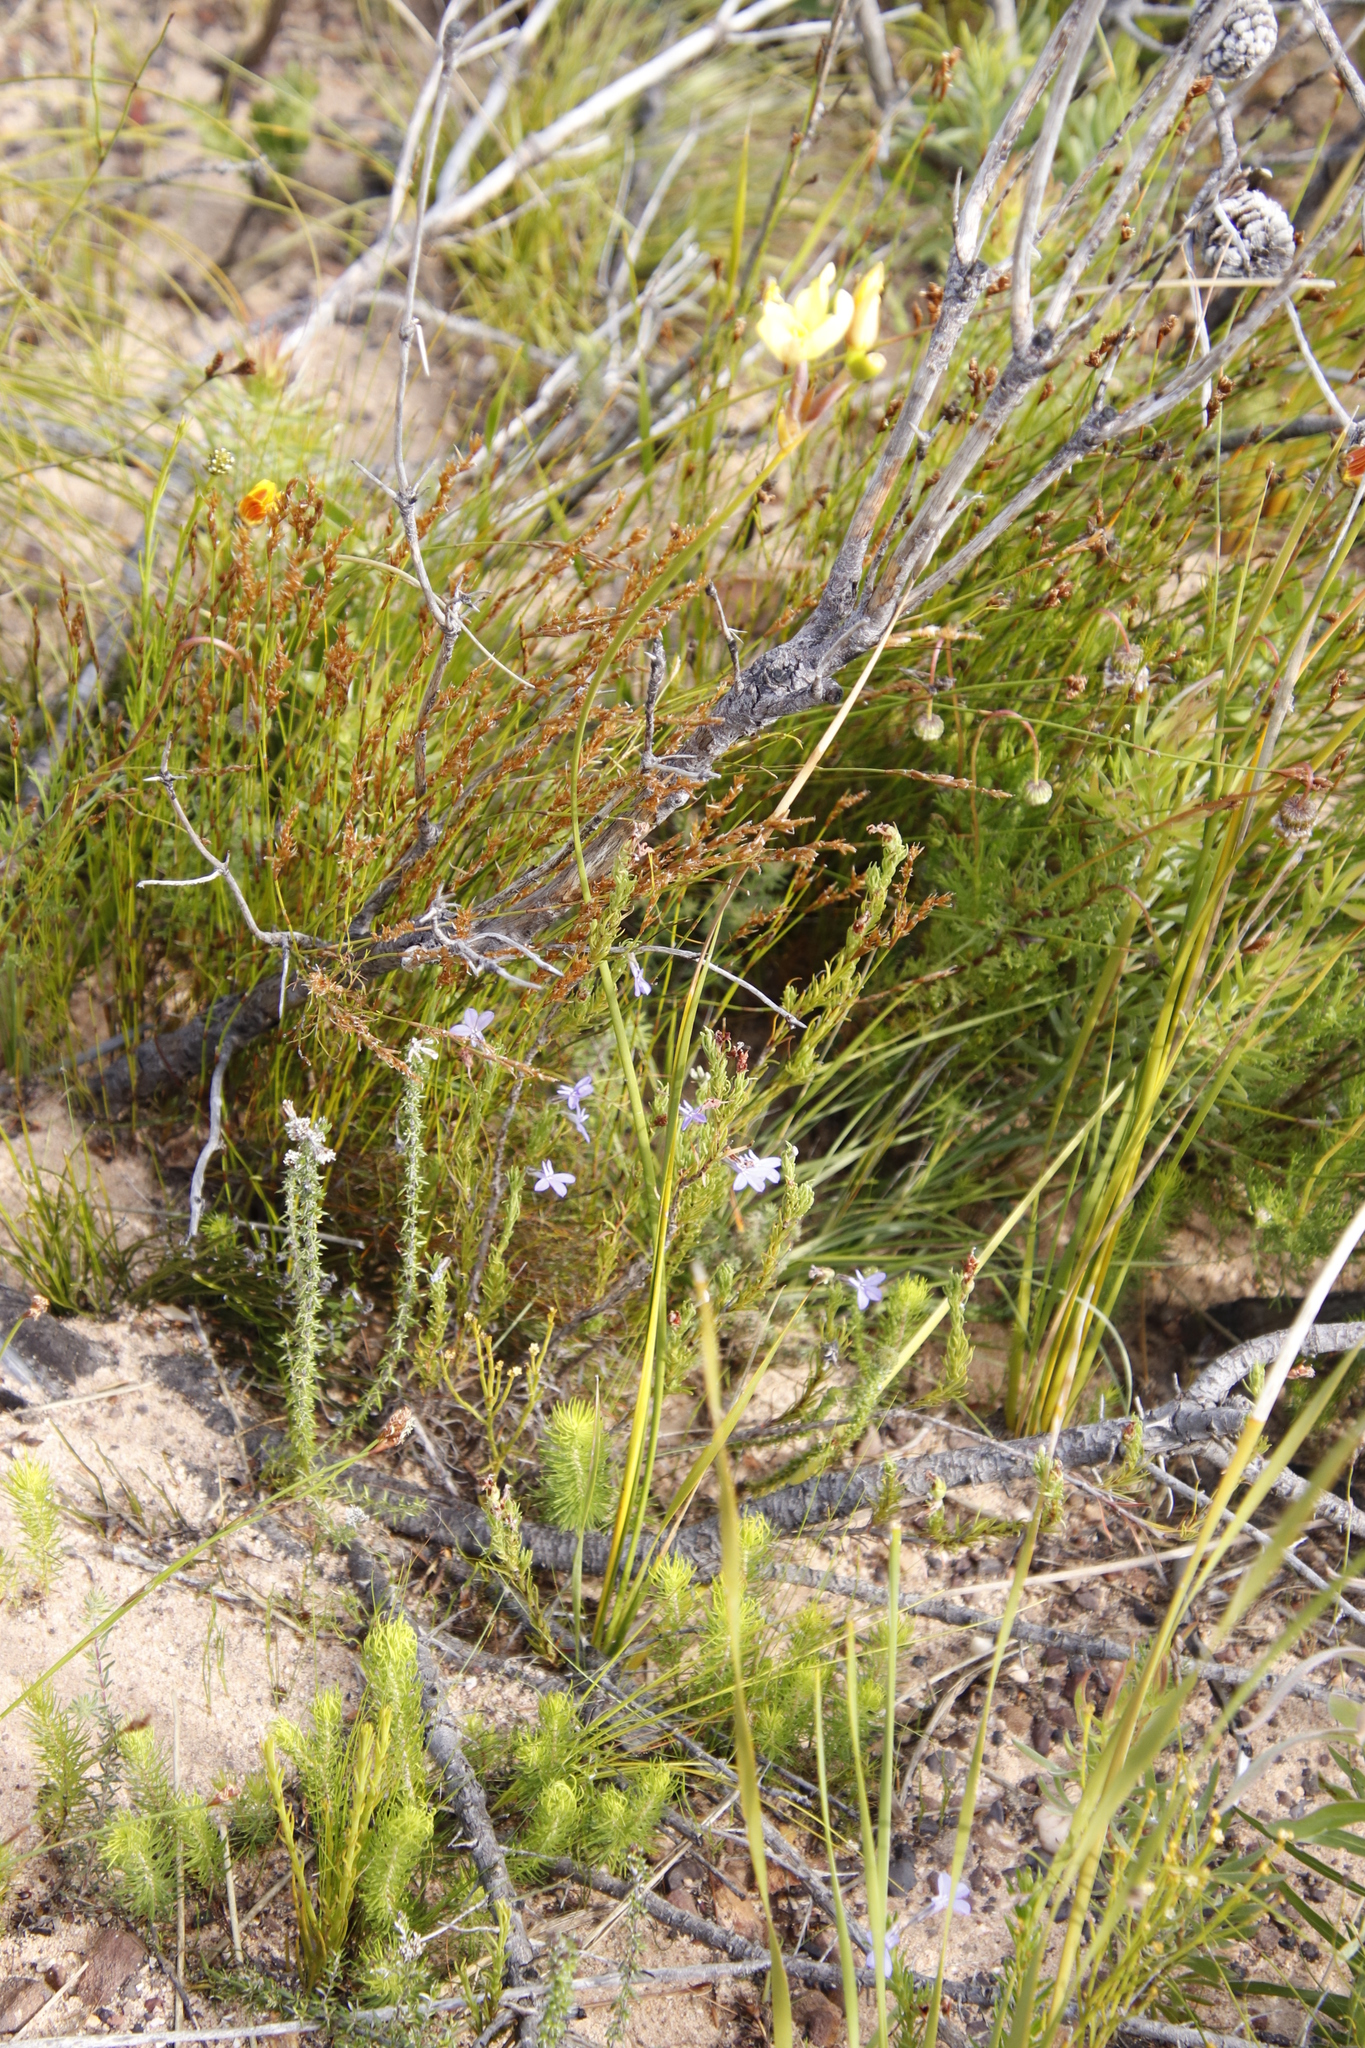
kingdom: Plantae
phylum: Tracheophyta
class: Magnoliopsida
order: Asterales
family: Campanulaceae
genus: Lobelia
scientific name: Lobelia pinifolia
